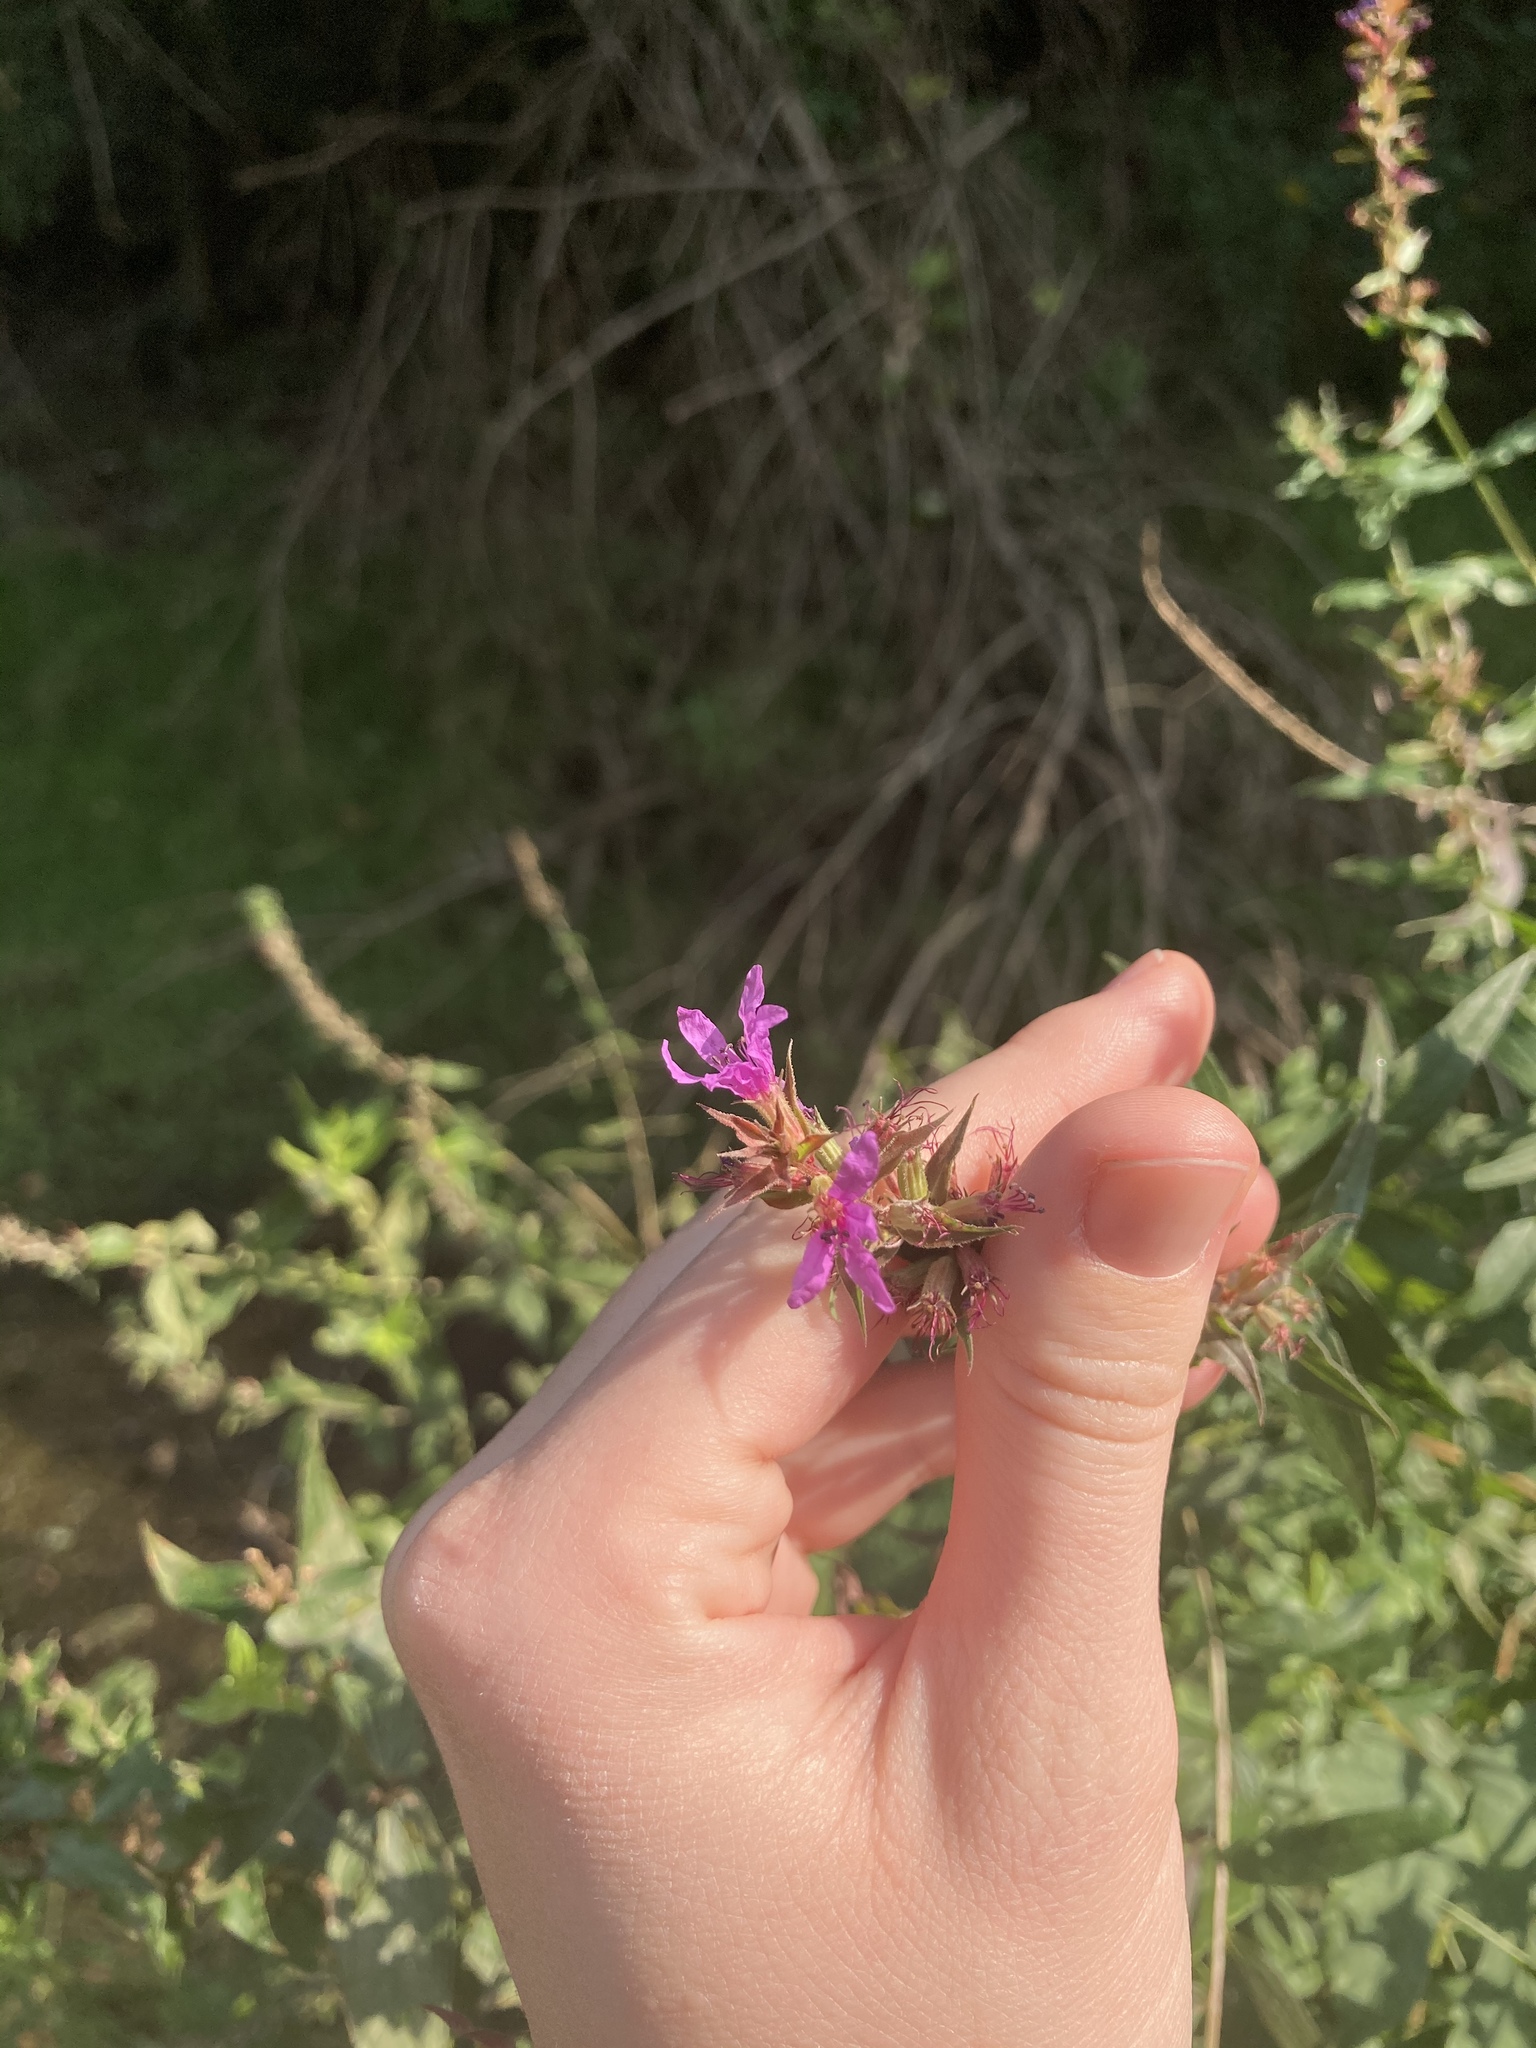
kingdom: Plantae
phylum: Tracheophyta
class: Magnoliopsida
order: Myrtales
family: Lythraceae
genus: Lythrum
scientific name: Lythrum salicaria
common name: Purple loosestrife
